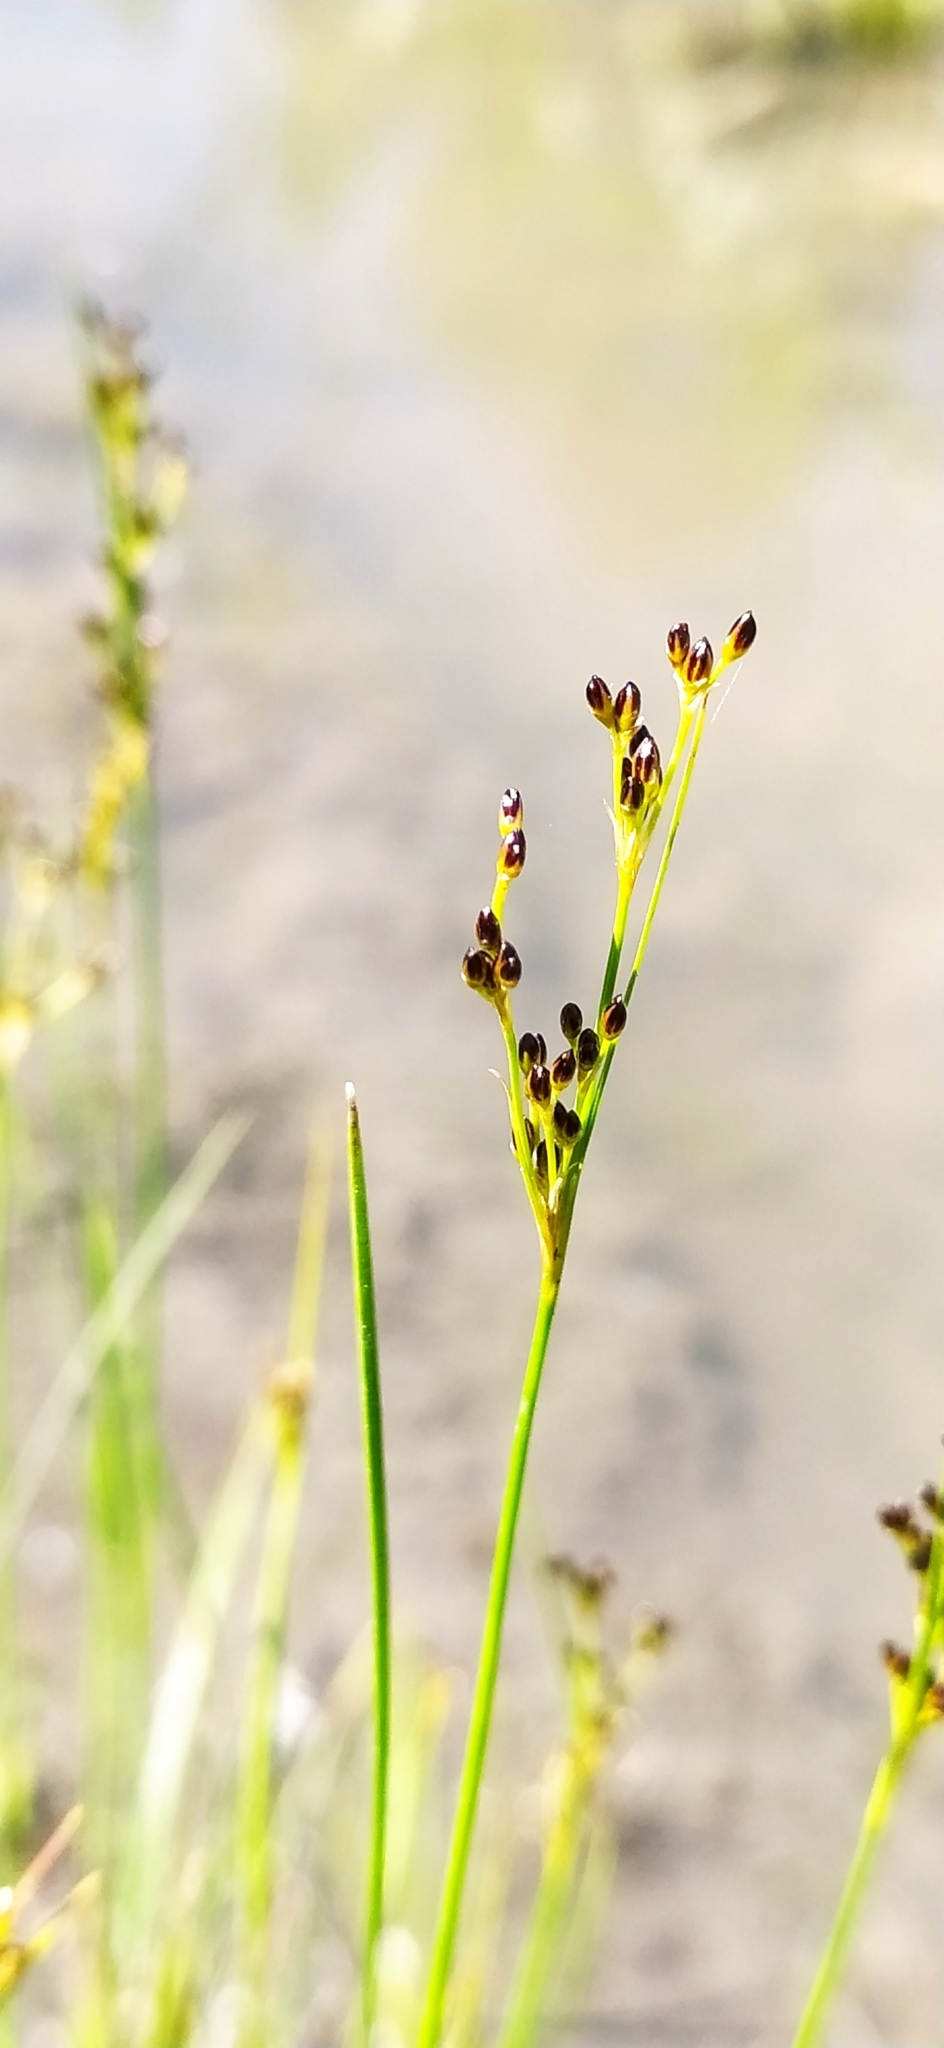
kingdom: Plantae
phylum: Tracheophyta
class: Liliopsida
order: Poales
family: Juncaceae
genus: Juncus
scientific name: Juncus compressus
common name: Round-fruited rush
